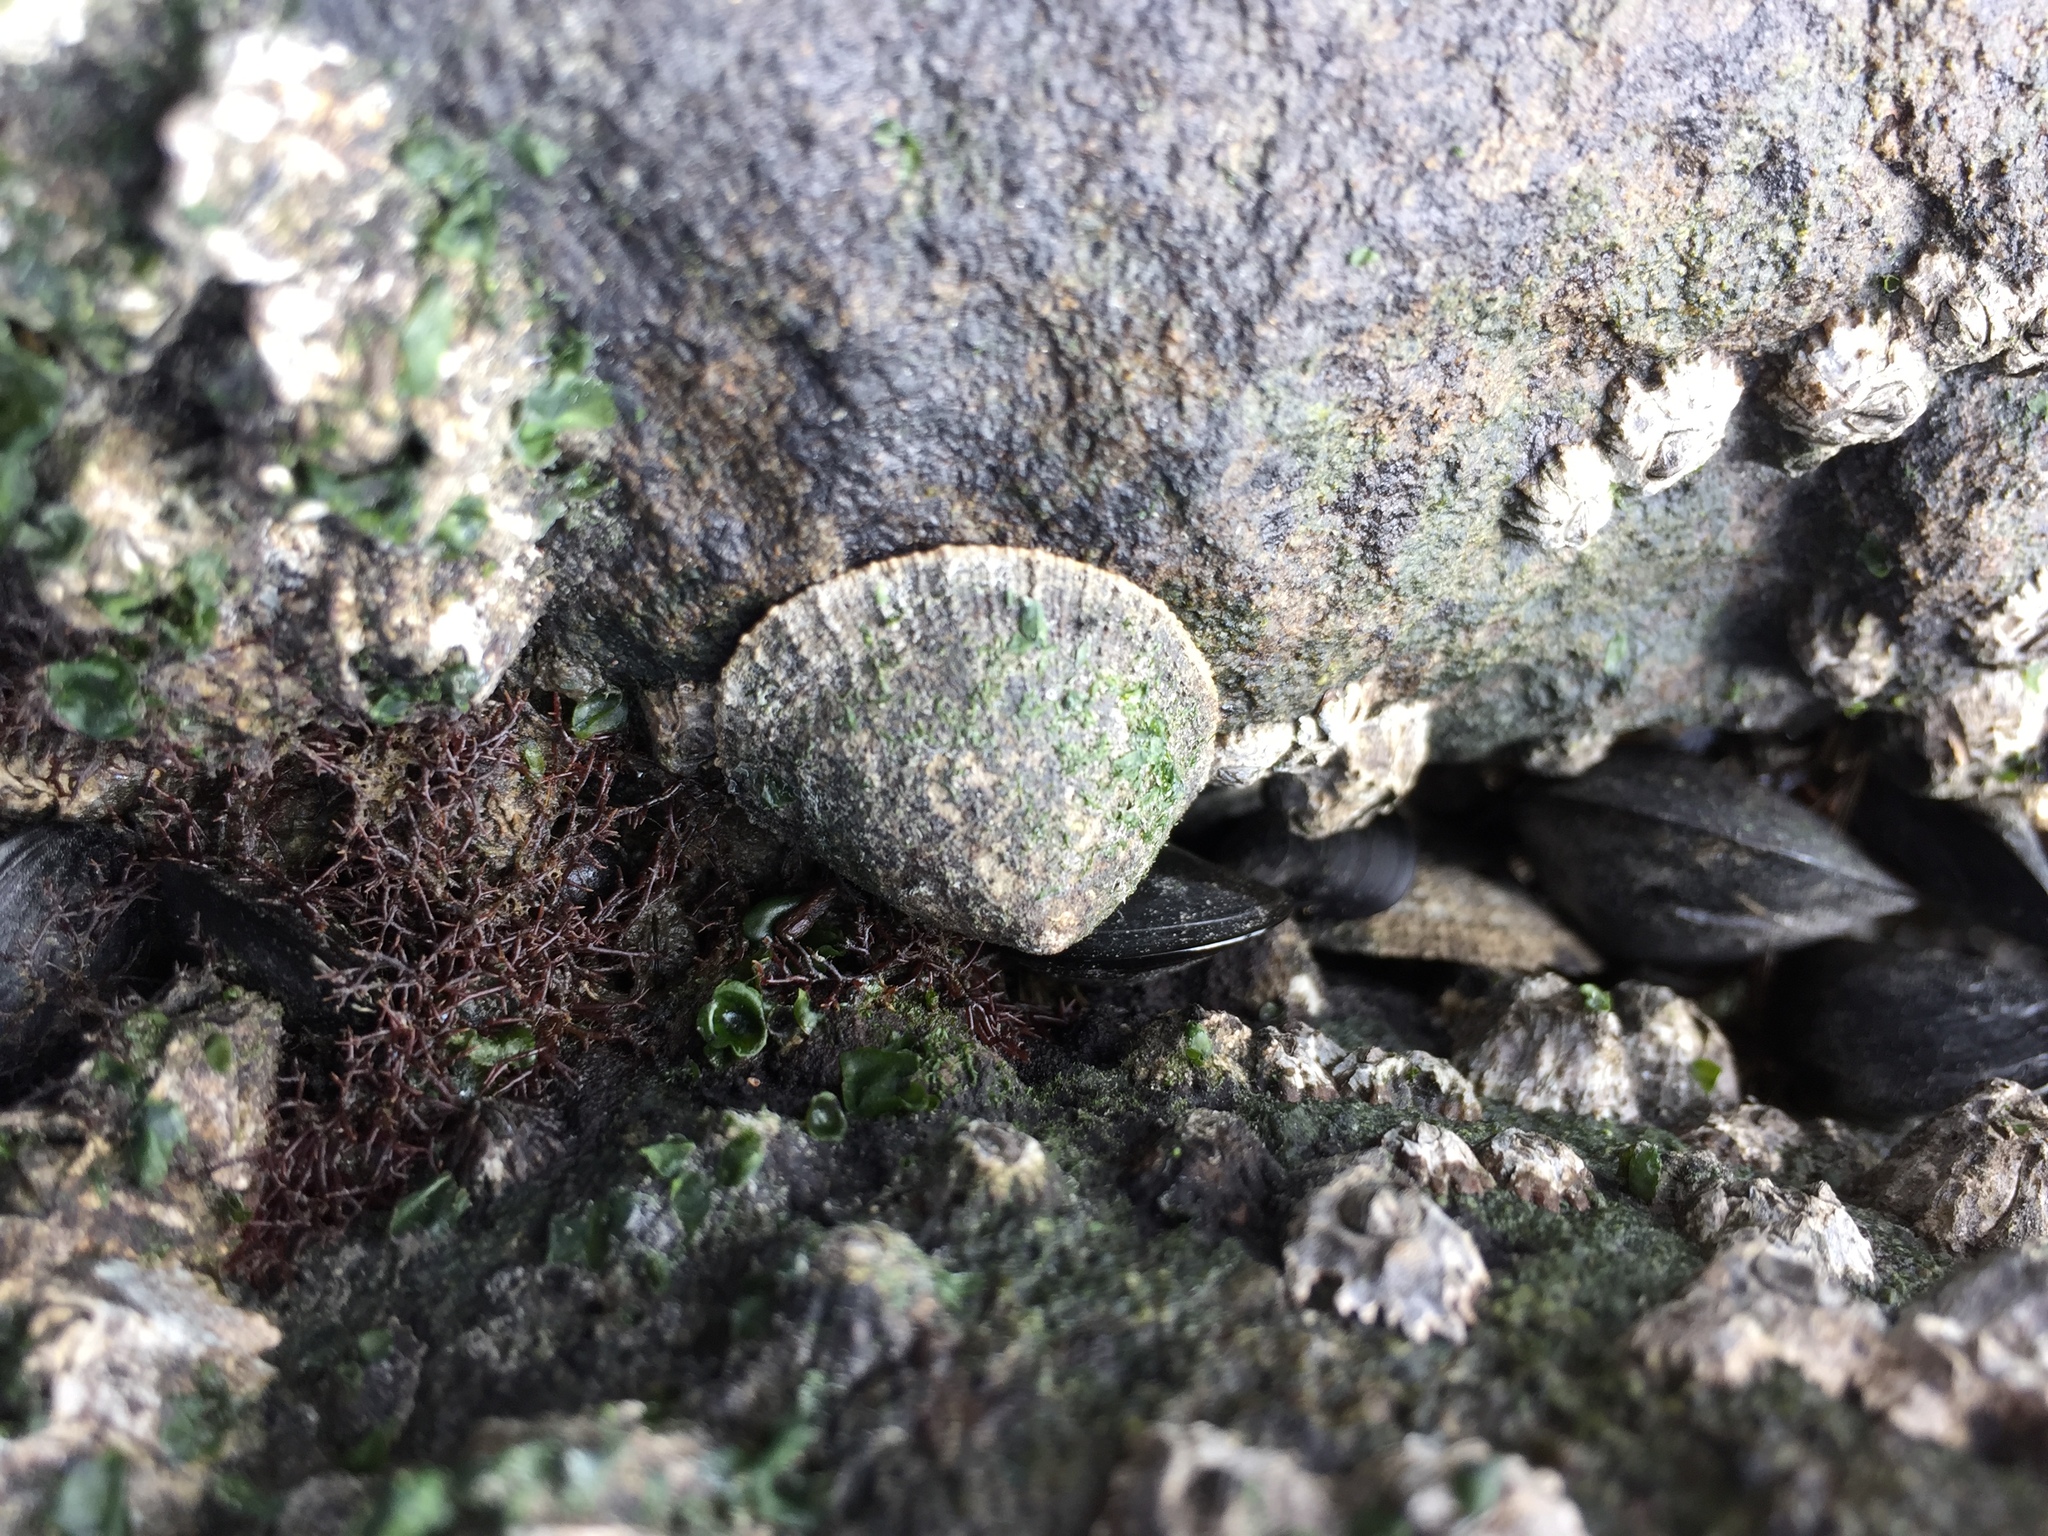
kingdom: Animalia
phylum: Mollusca
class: Gastropoda
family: Lottiidae
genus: Lottia
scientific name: Lottia limatula
